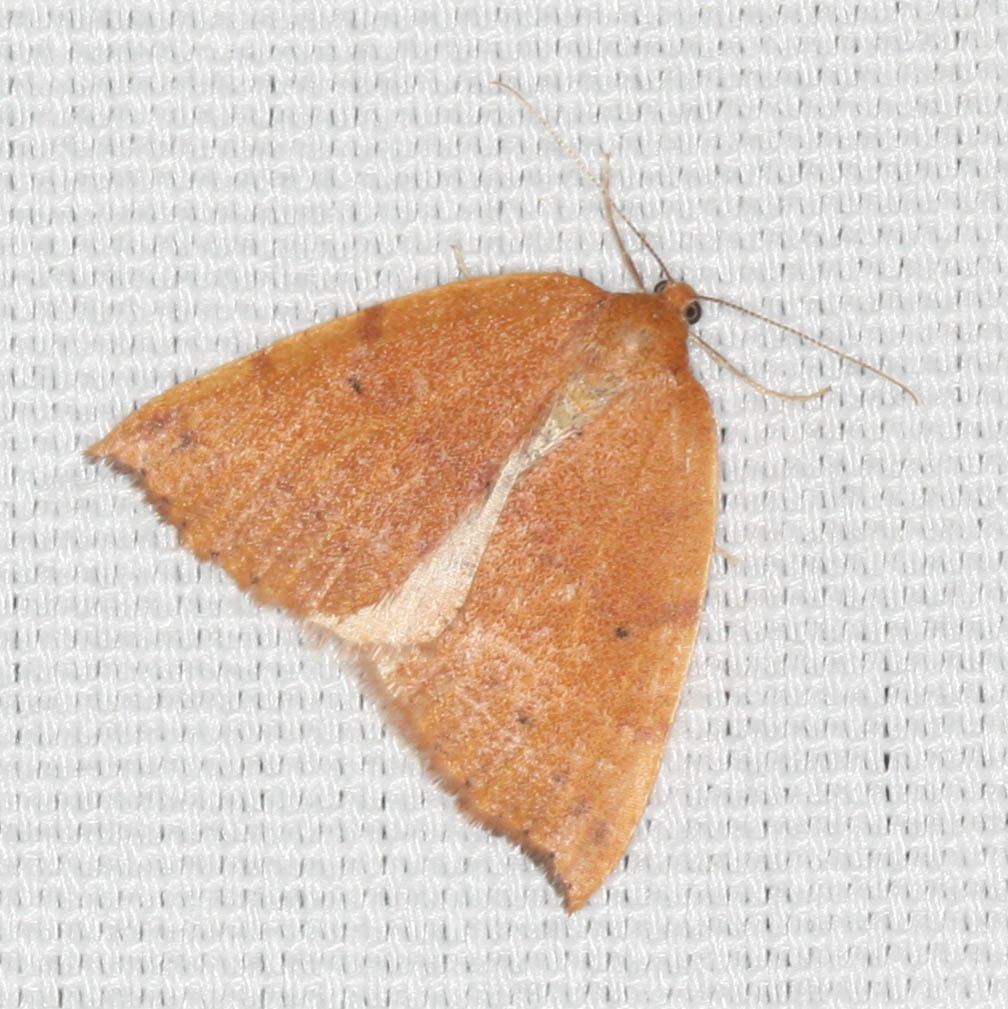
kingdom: Animalia
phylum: Arthropoda
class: Insecta
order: Lepidoptera
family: Geometridae
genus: Drepanulatrix
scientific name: Drepanulatrix falcataria
